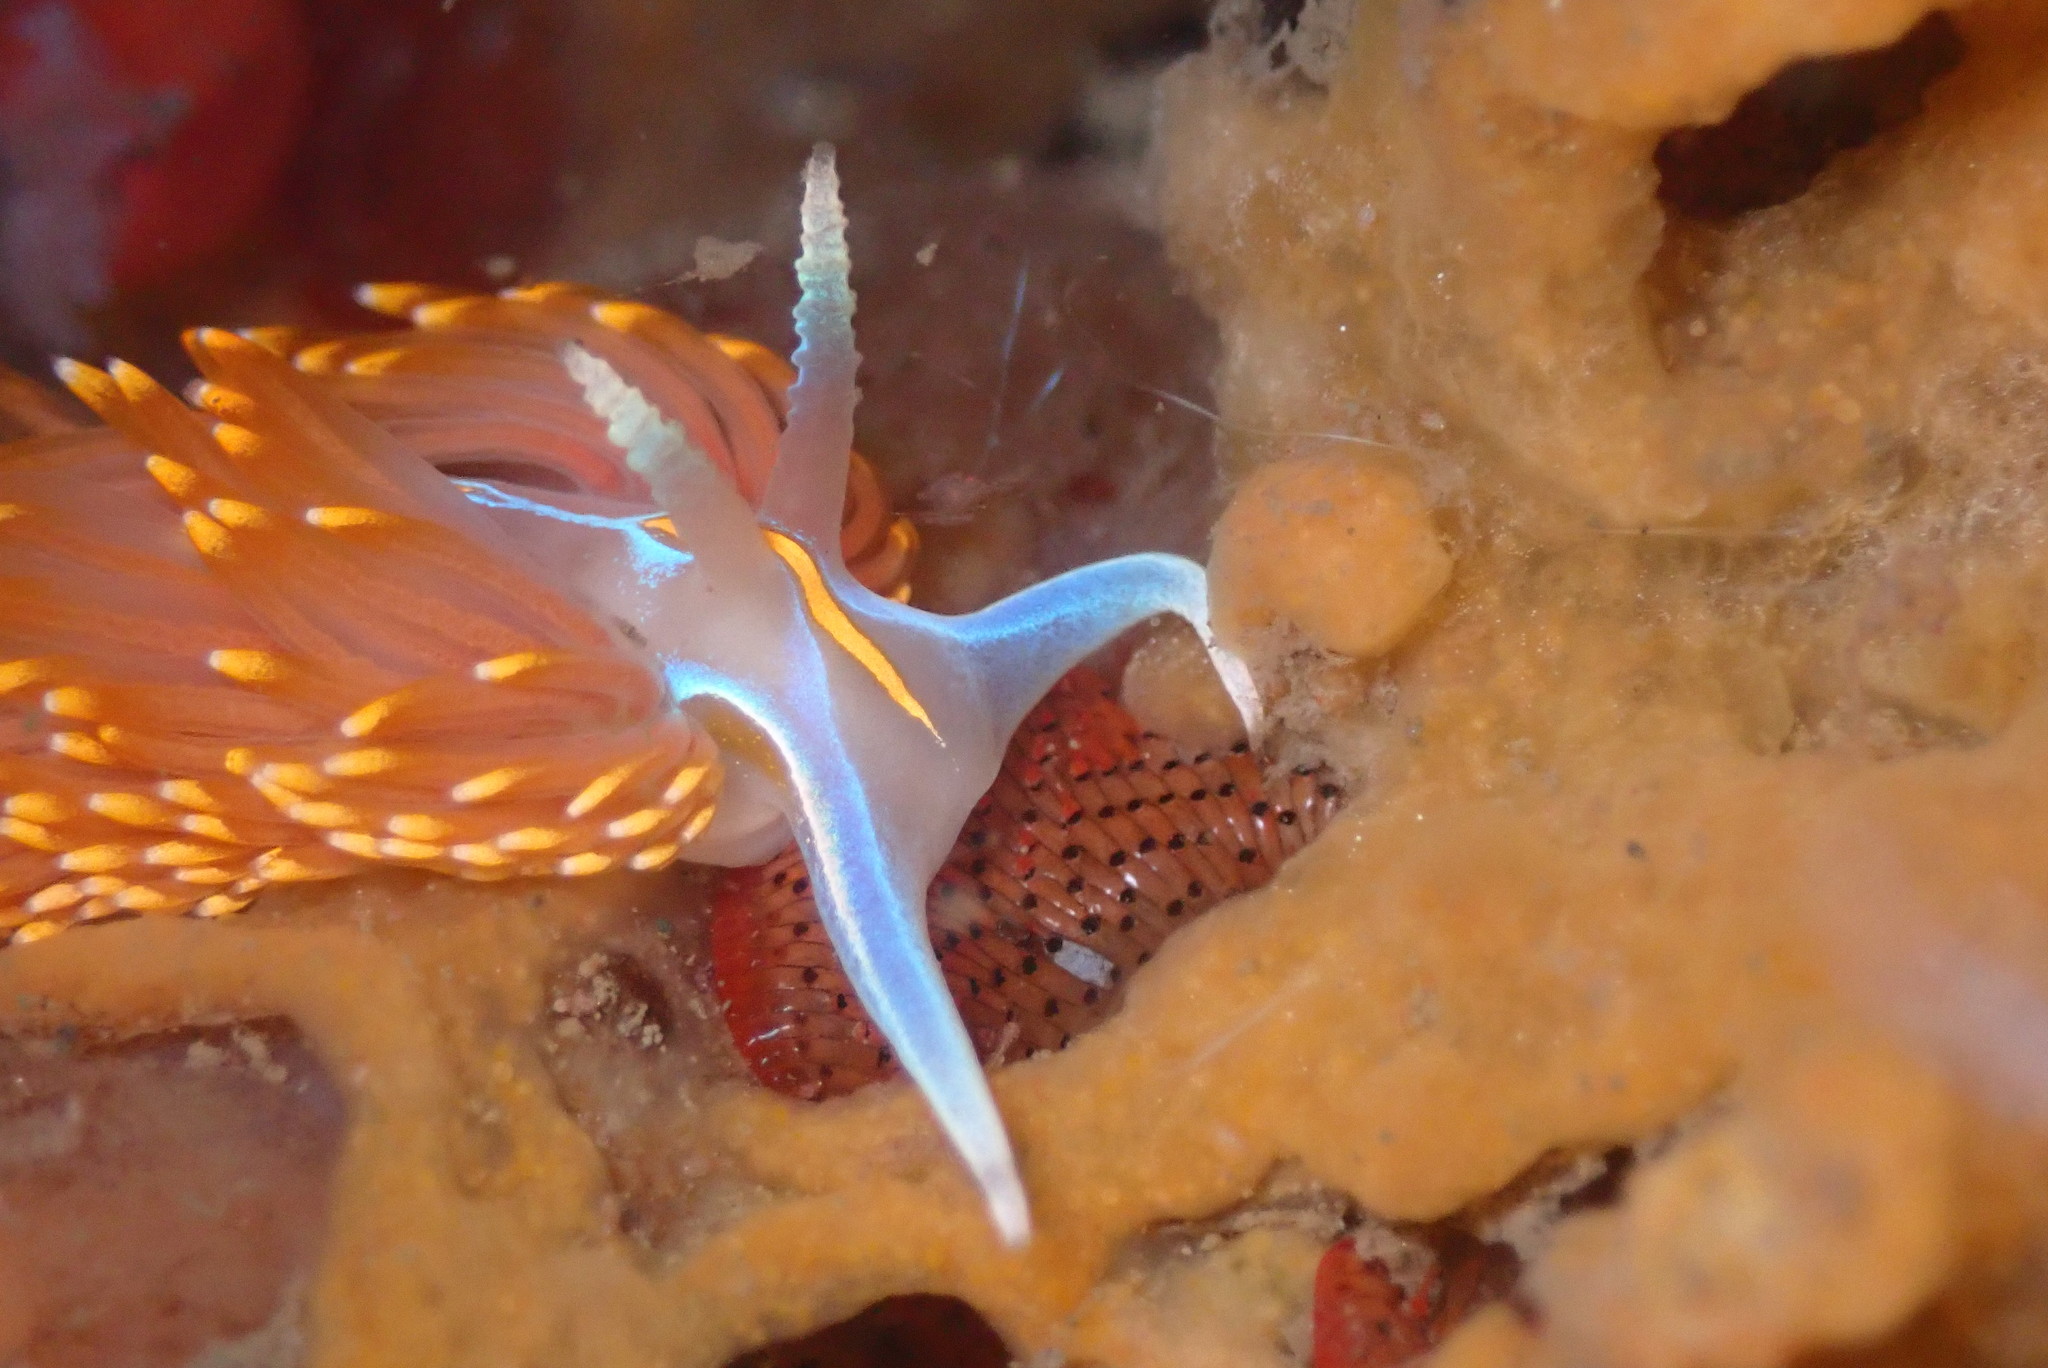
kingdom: Animalia
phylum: Mollusca
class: Gastropoda
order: Nudibranchia
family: Myrrhinidae
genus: Hermissenda
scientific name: Hermissenda opalescens
